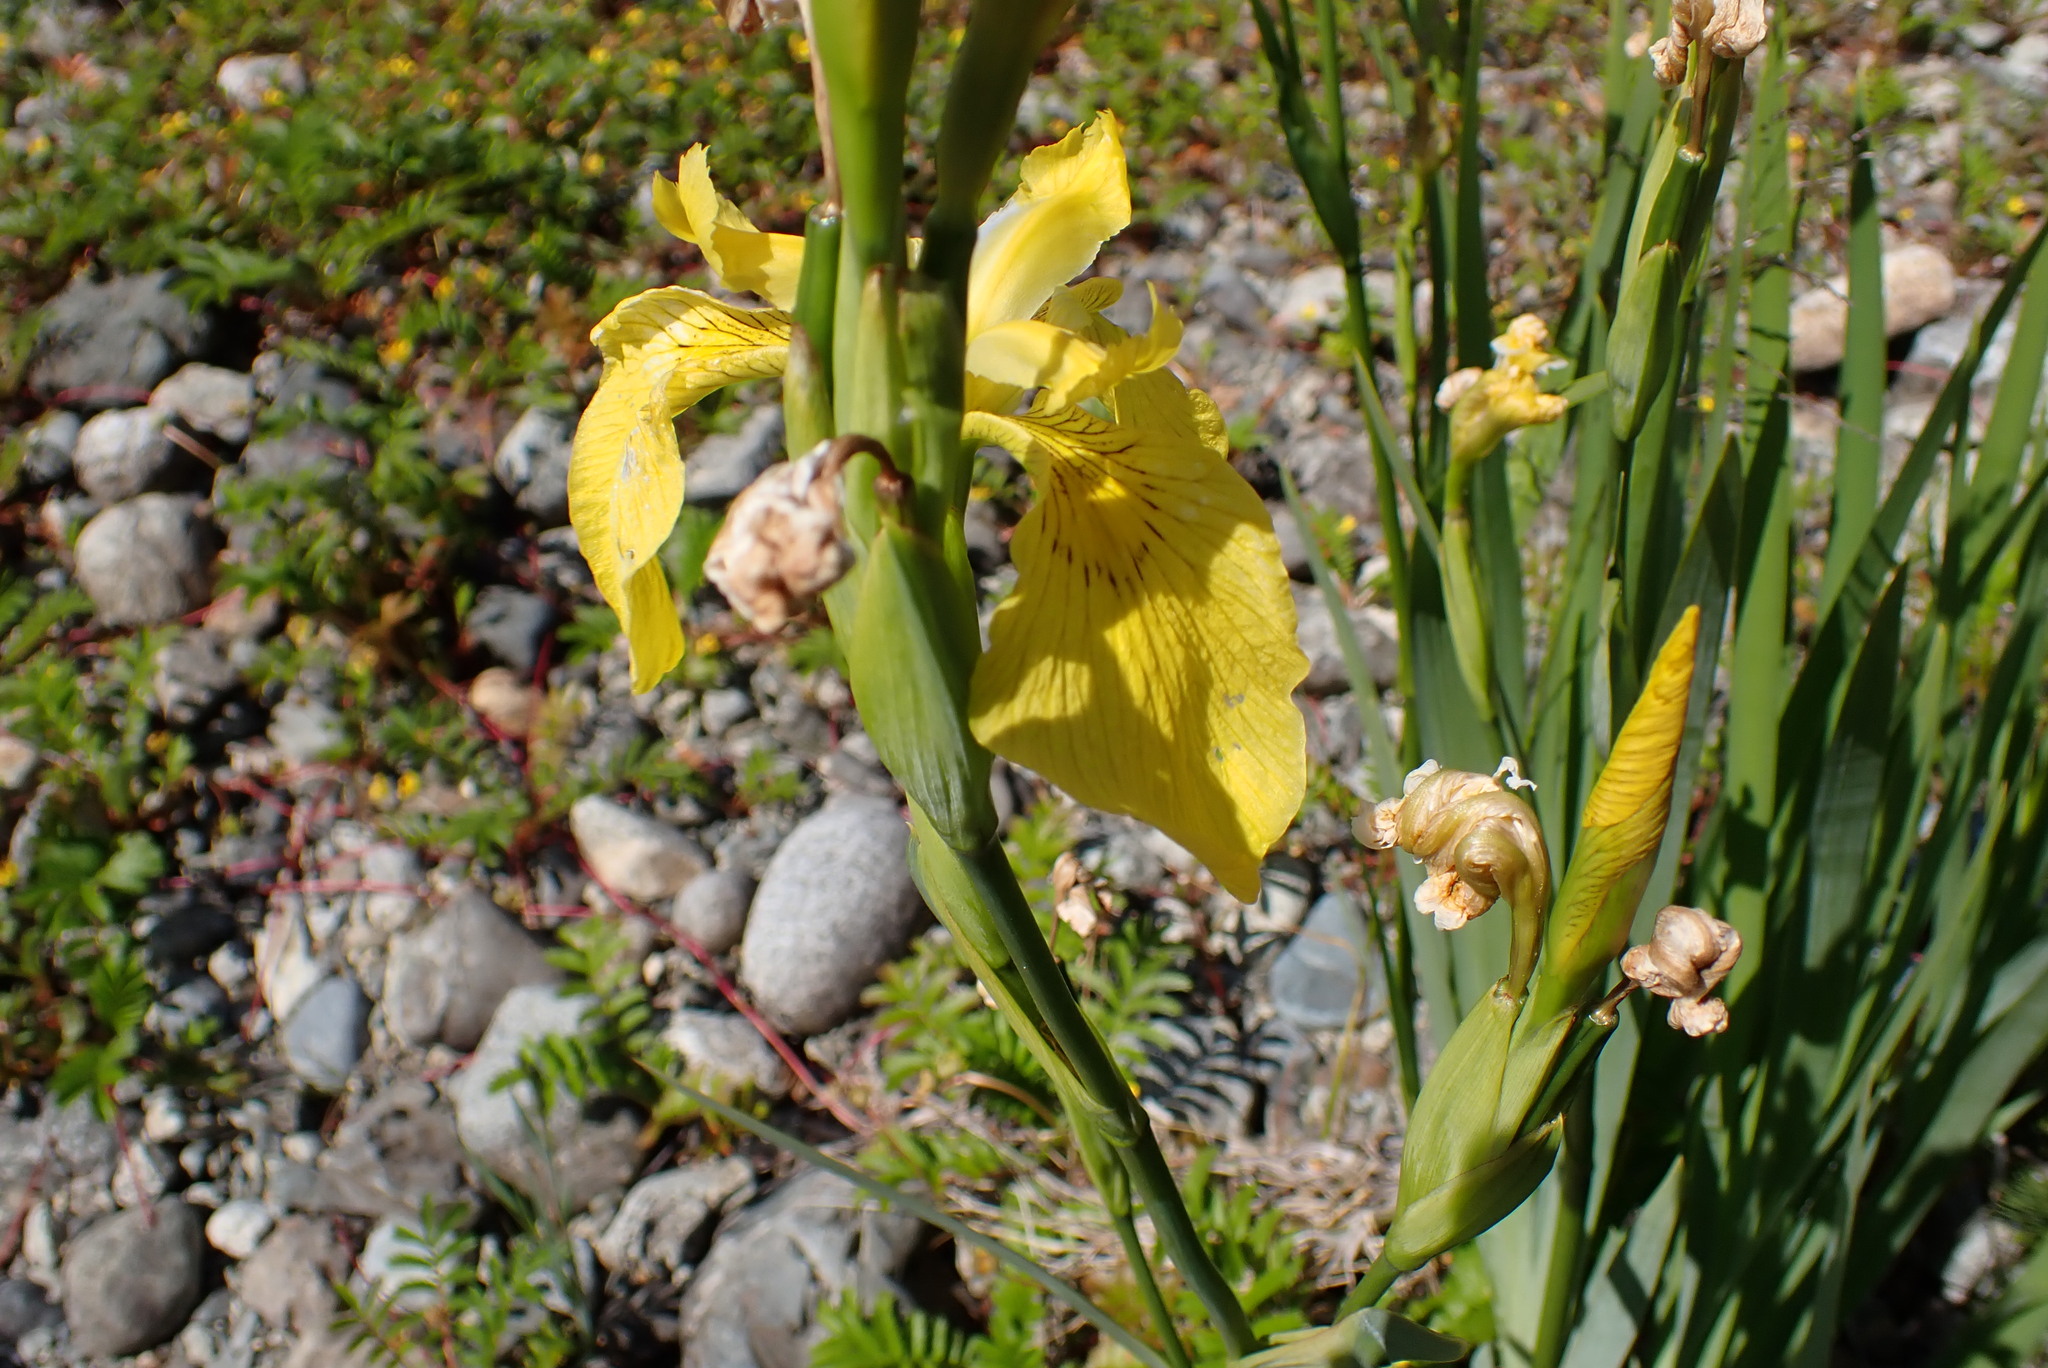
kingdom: Plantae
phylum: Tracheophyta
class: Liliopsida
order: Asparagales
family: Iridaceae
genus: Iris
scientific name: Iris pseudacorus
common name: Yellow flag
